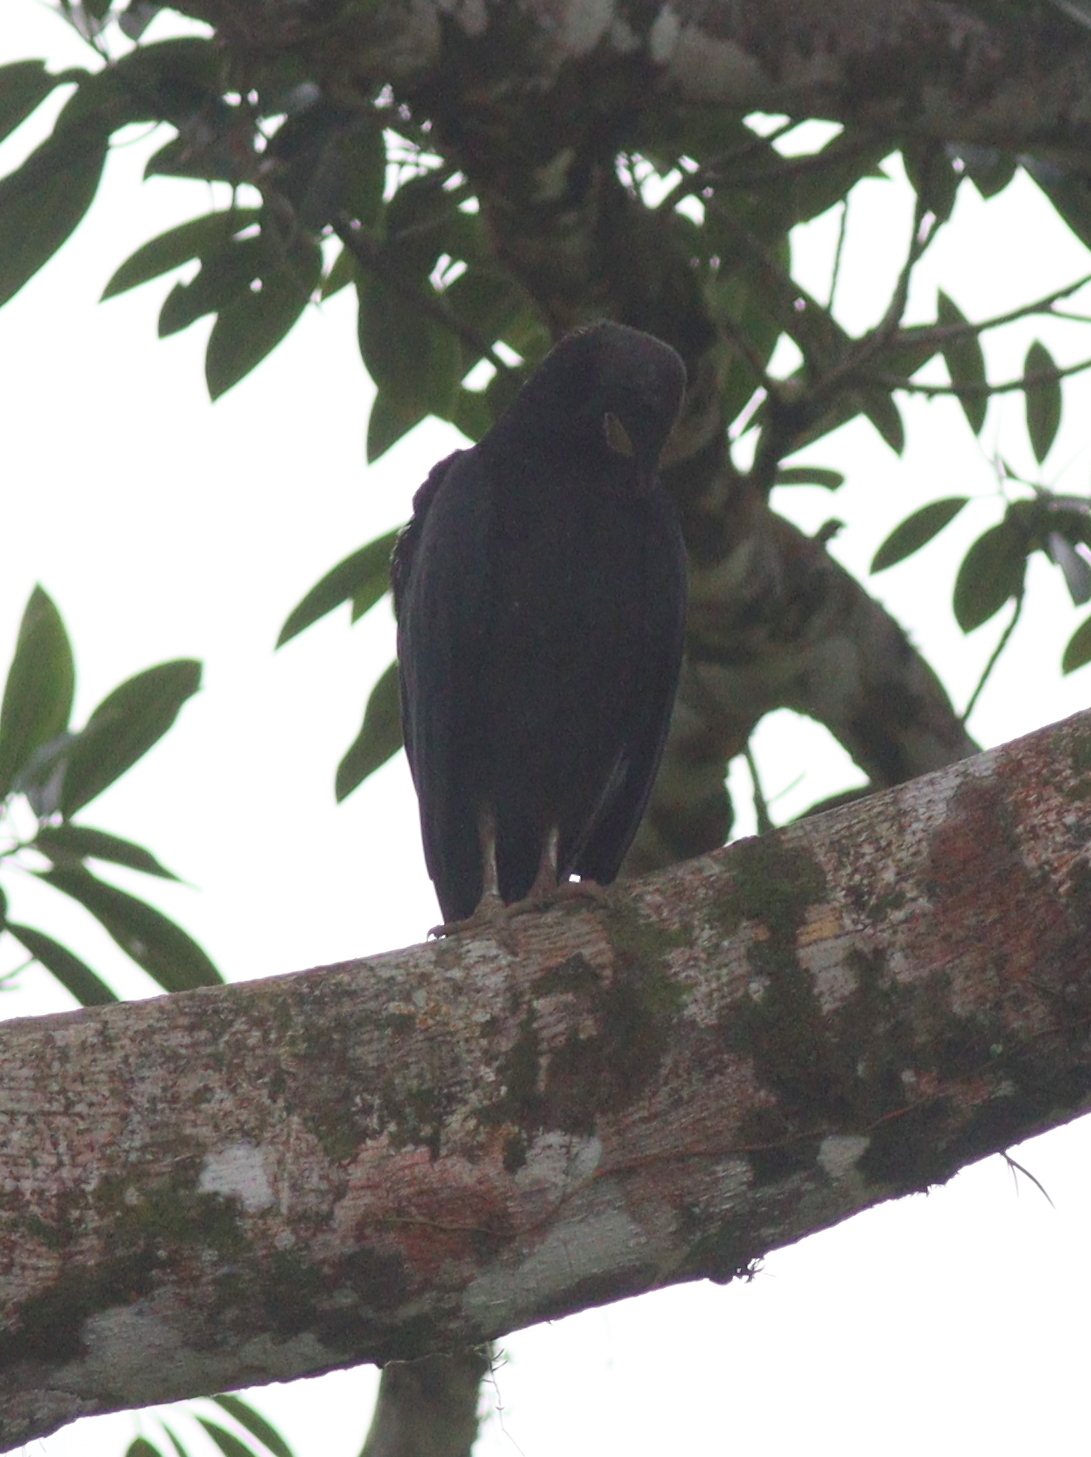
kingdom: Animalia
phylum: Chordata
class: Aves
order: Accipitriformes
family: Cathartidae
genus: Coragyps
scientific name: Coragyps atratus
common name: Black vulture
